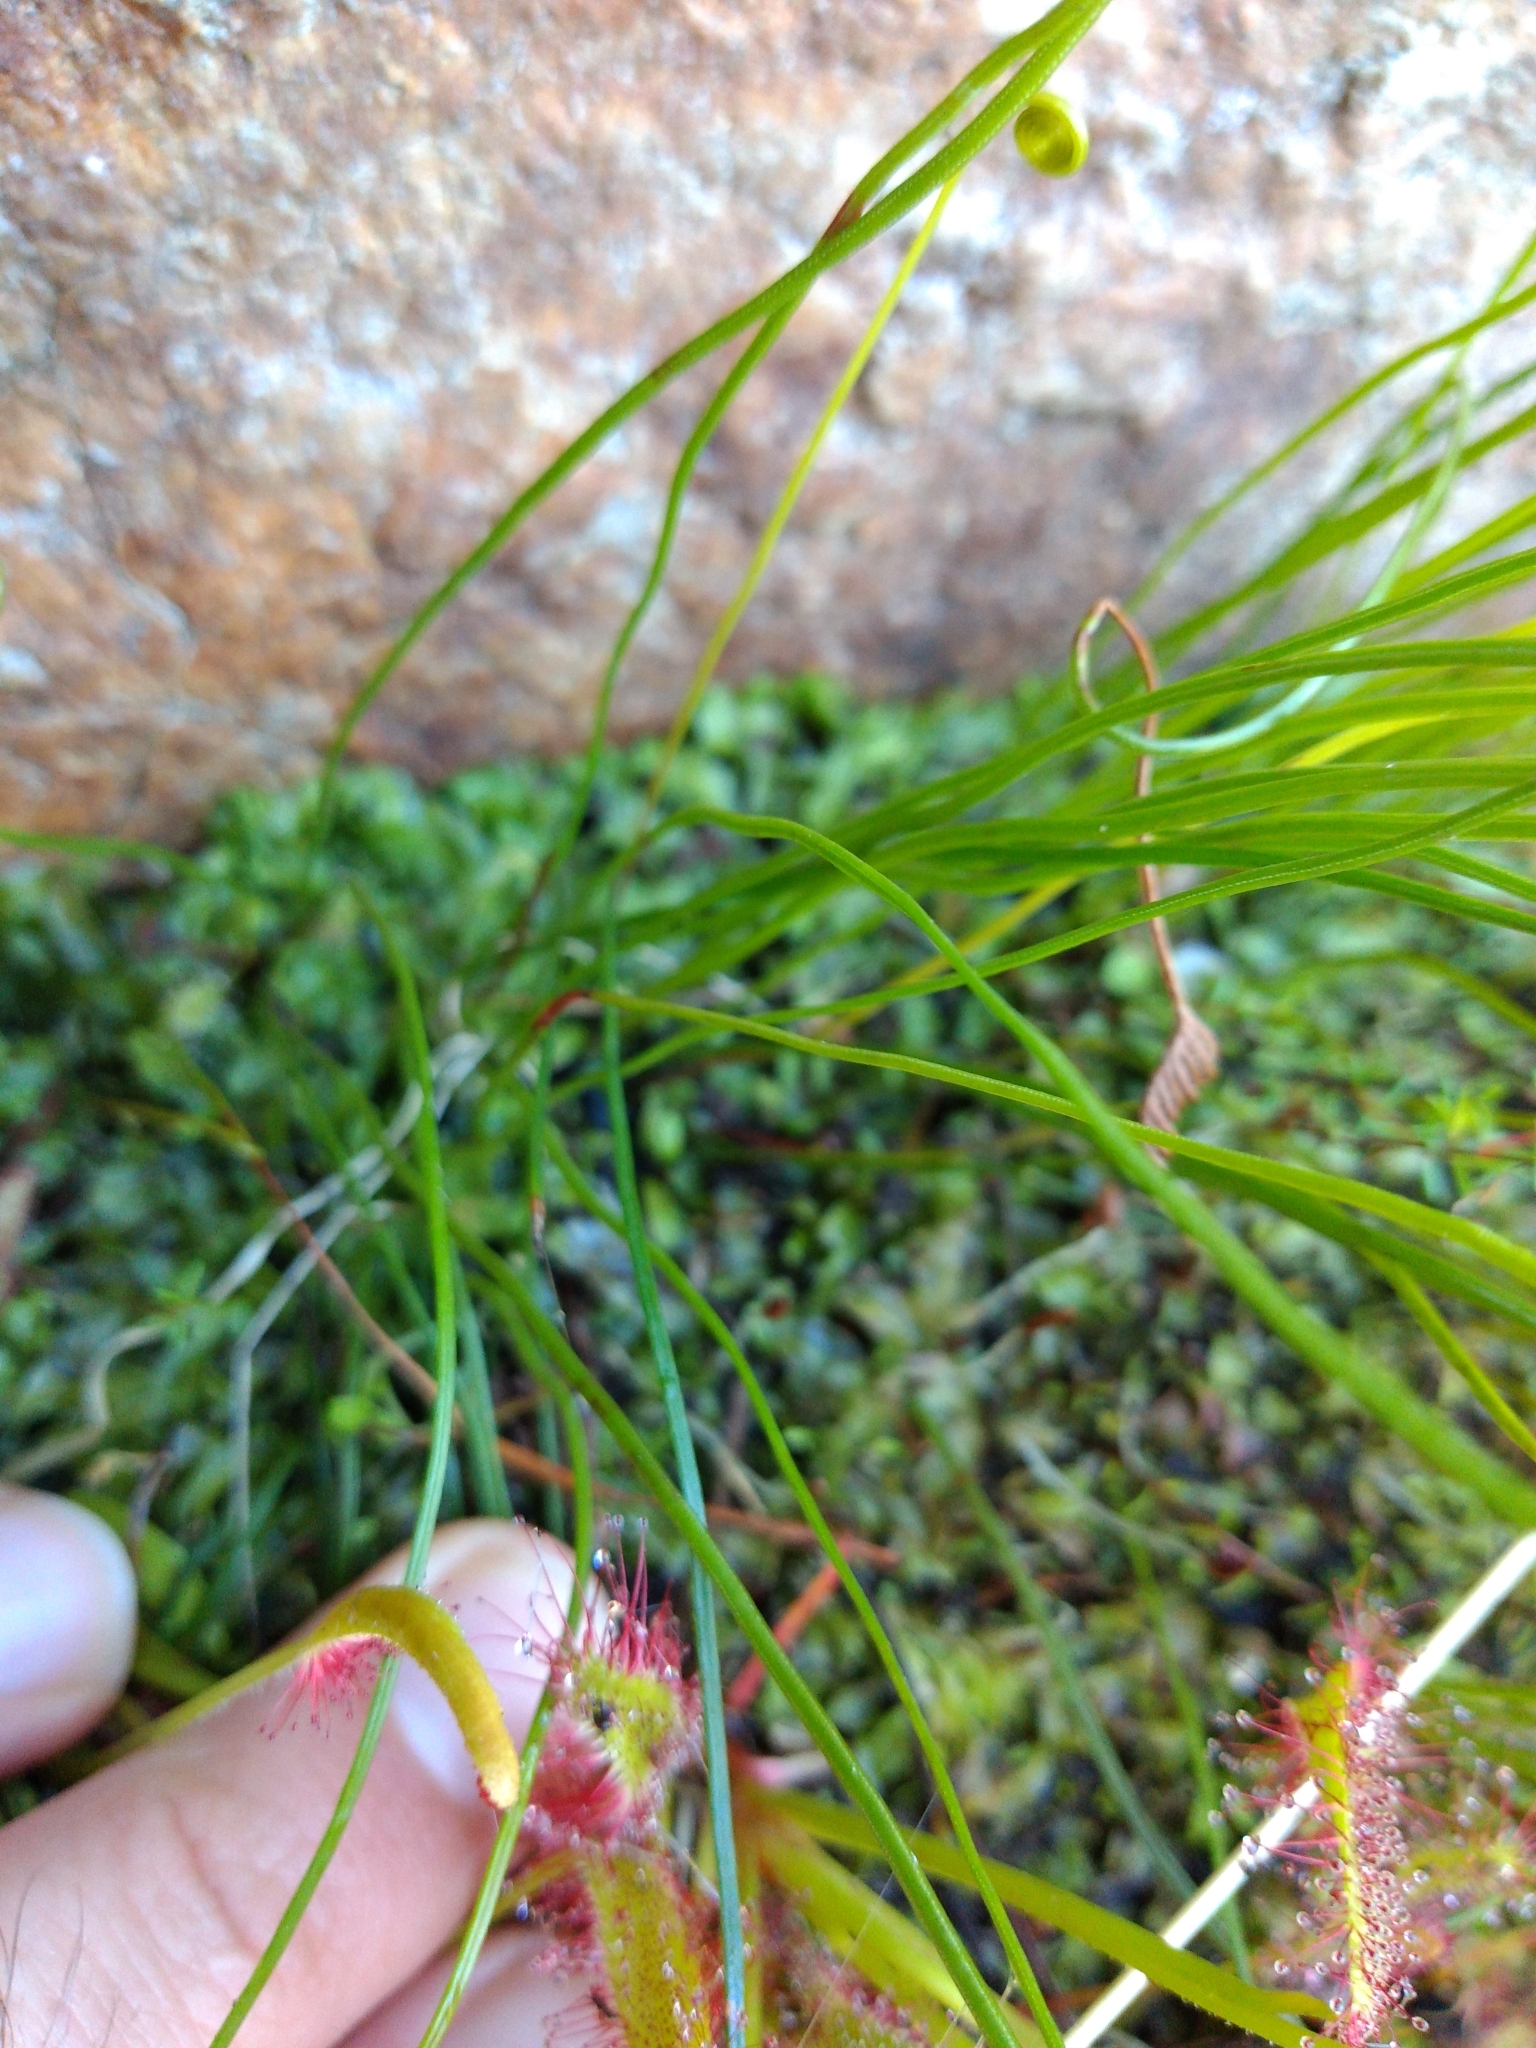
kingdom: Plantae
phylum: Tracheophyta
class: Polypodiopsida
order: Schizaeales
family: Schizaeaceae
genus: Microschizaea
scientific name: Microschizaea tenella
